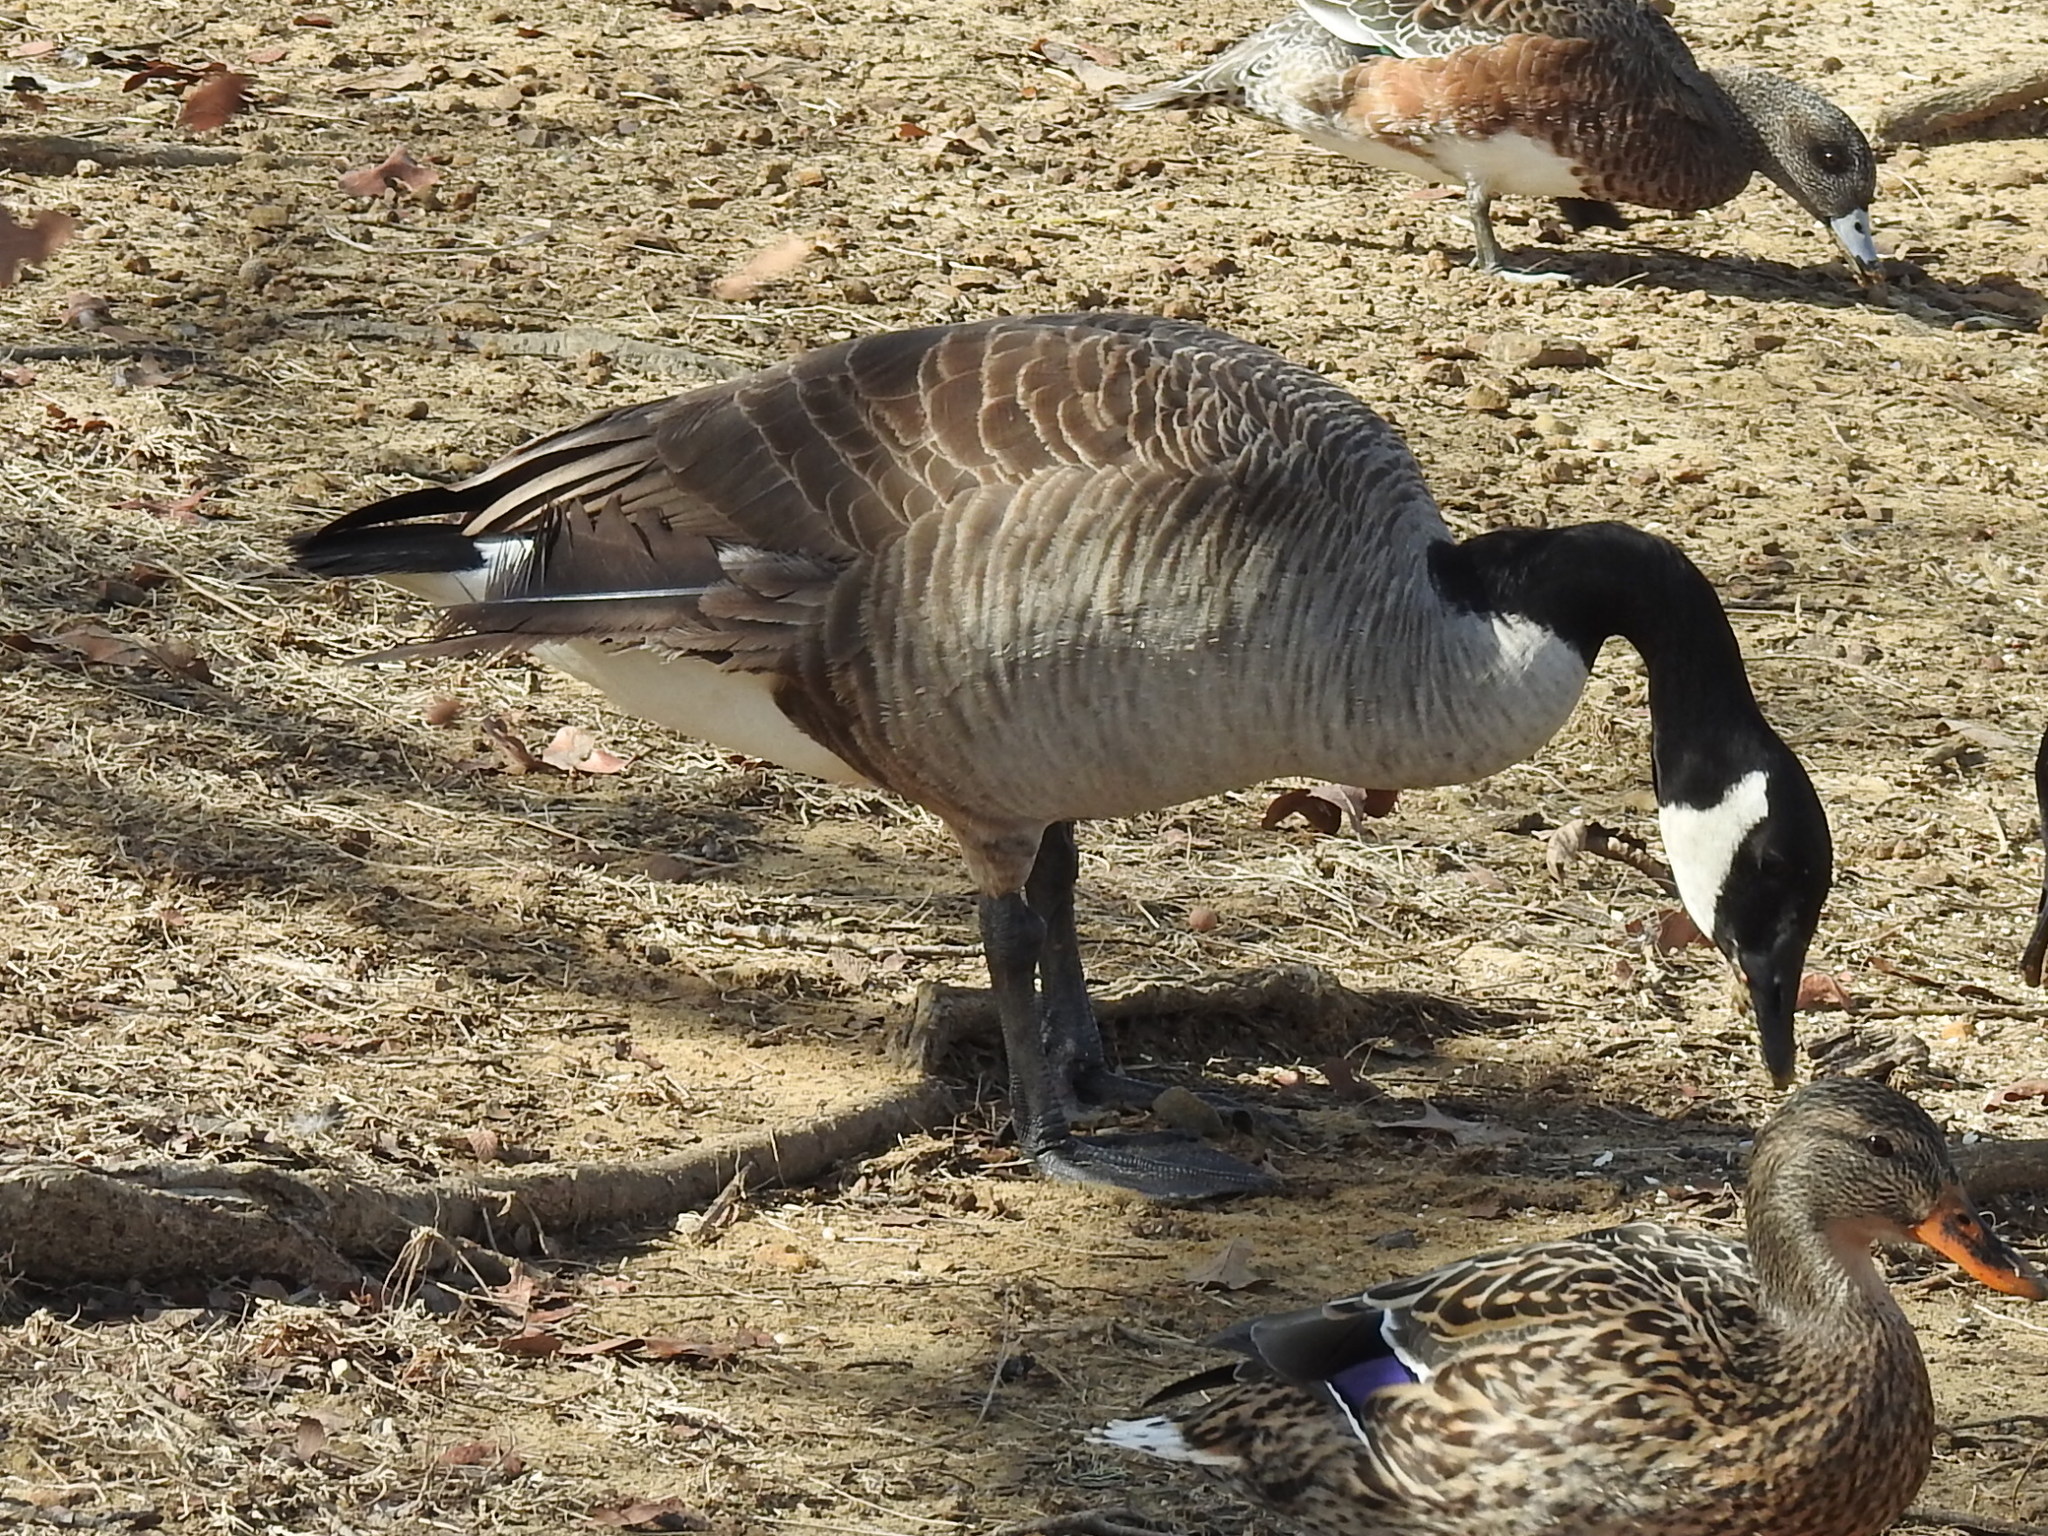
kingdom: Animalia
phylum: Chordata
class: Aves
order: Anseriformes
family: Anatidae
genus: Branta
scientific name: Branta canadensis
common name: Canada goose
